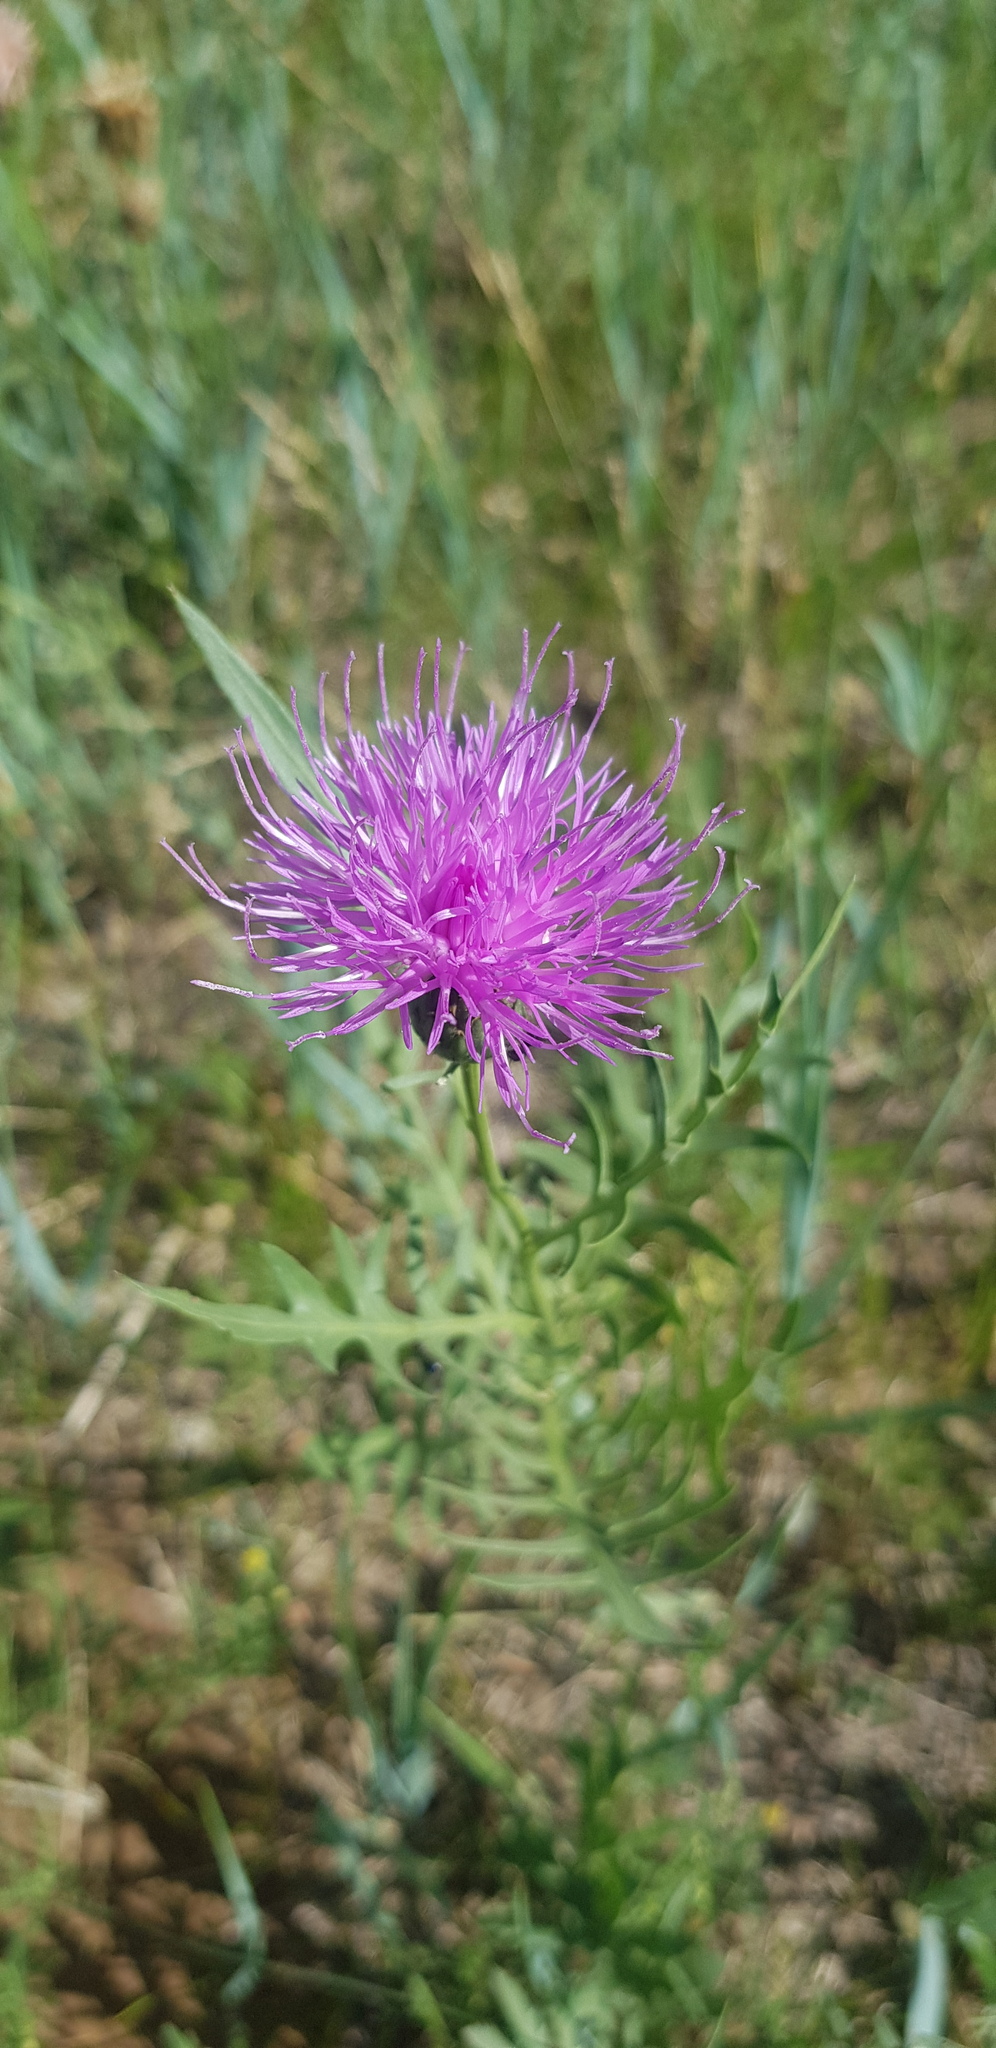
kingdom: Plantae
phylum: Tracheophyta
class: Magnoliopsida
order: Asterales
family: Asteraceae
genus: Klasea
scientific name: Klasea centauroides
